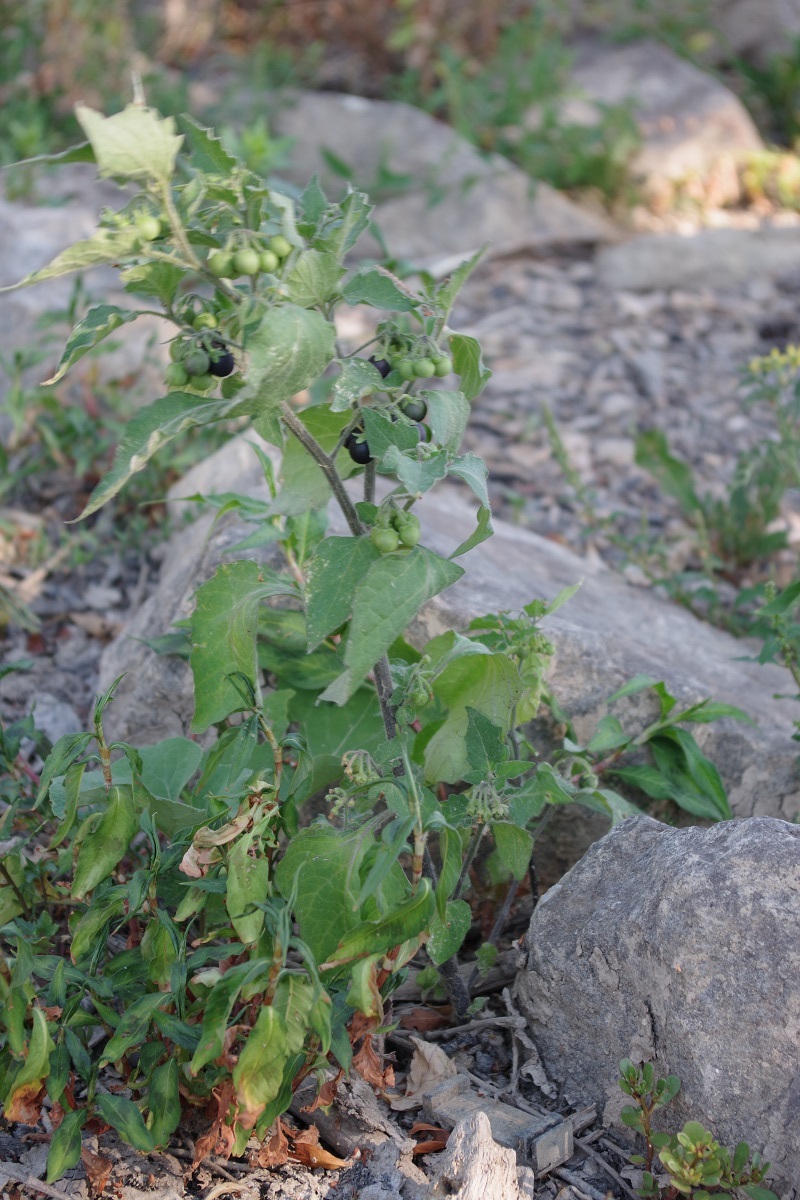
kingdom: Plantae
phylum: Tracheophyta
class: Magnoliopsida
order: Solanales
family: Solanaceae
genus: Solanum
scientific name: Solanum nigrum
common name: Black nightshade
